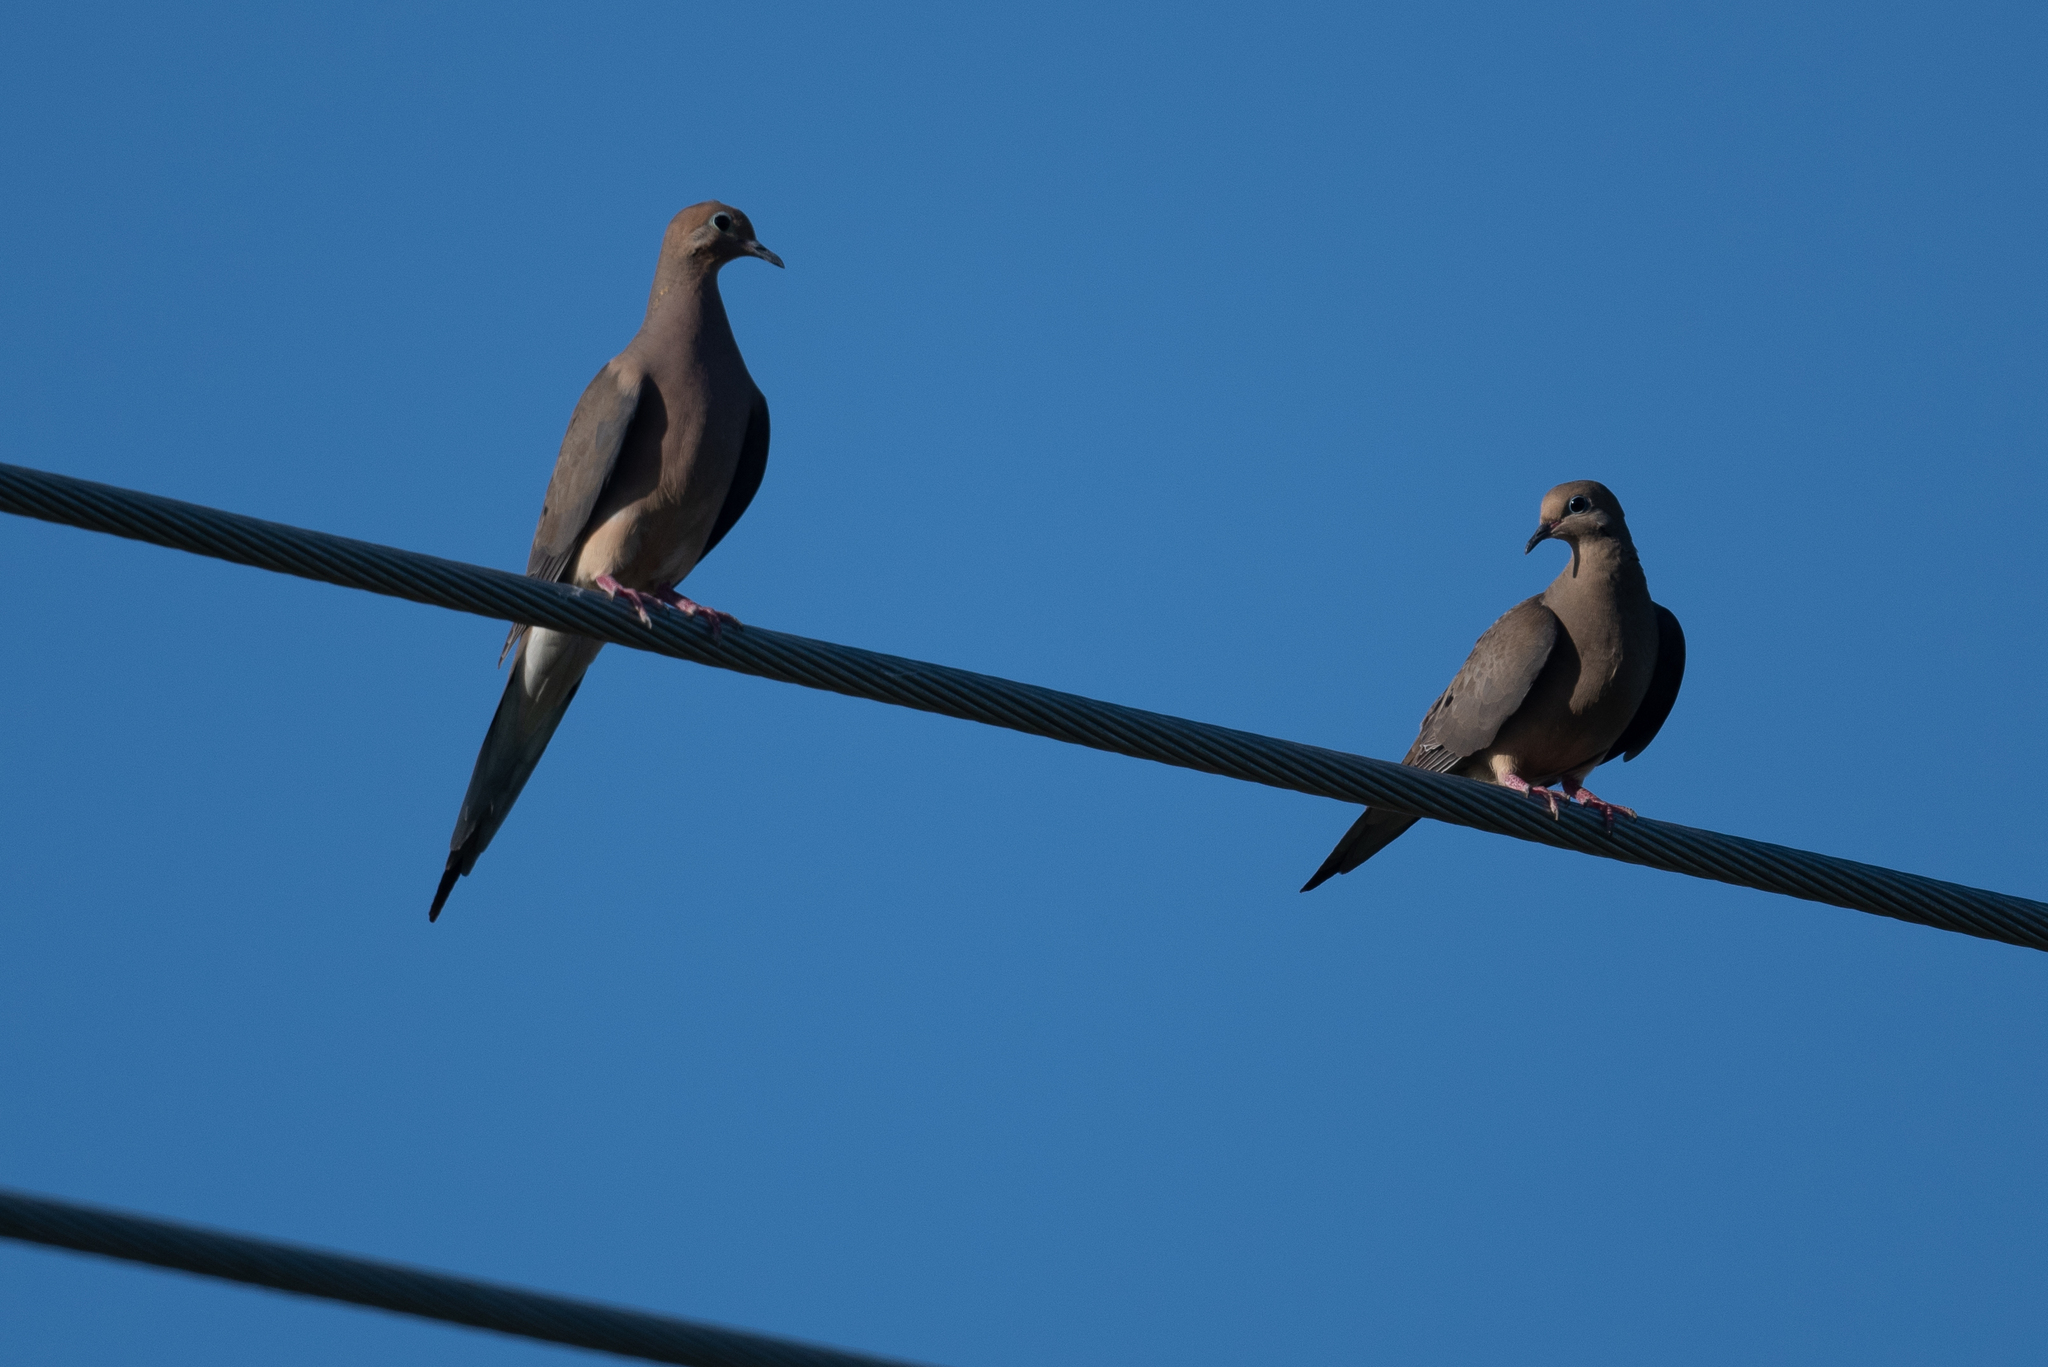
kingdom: Animalia
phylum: Chordata
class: Aves
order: Columbiformes
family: Columbidae
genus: Zenaida
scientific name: Zenaida macroura
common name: Mourning dove
